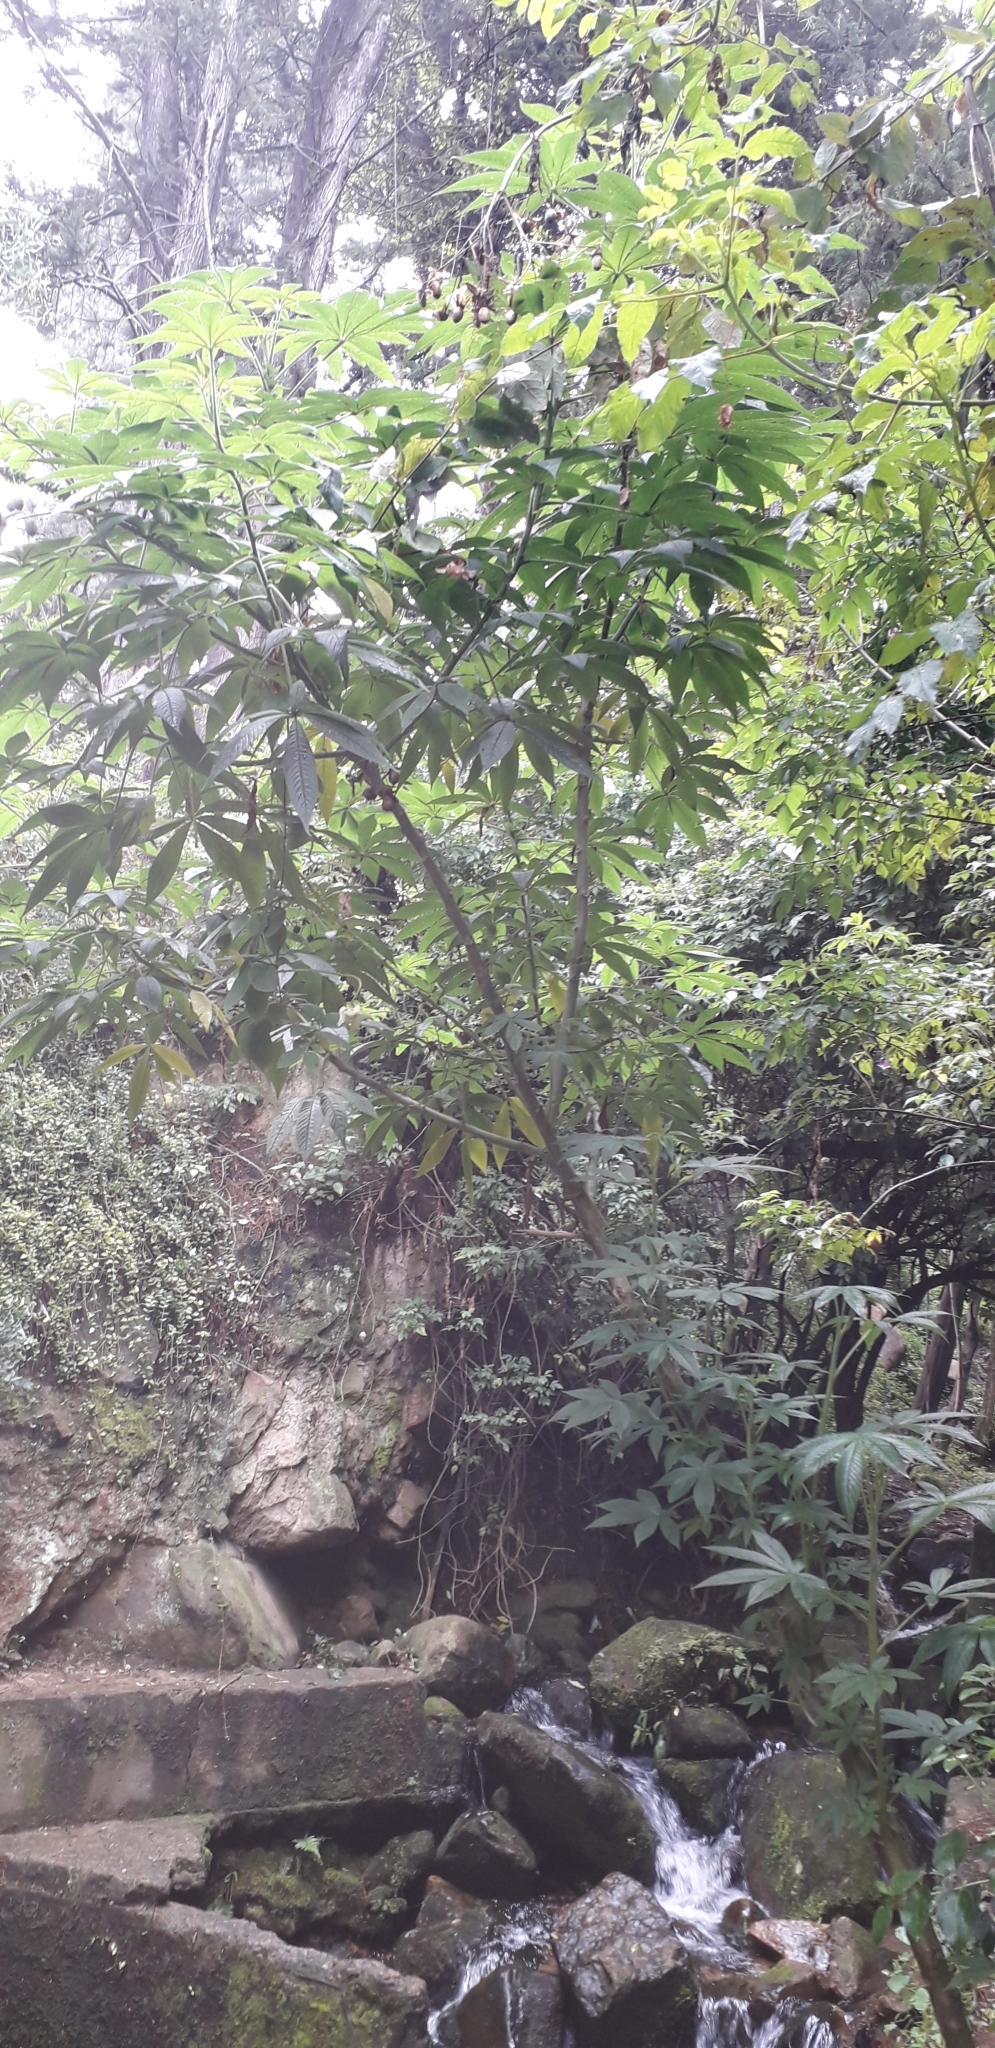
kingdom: Plantae
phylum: Tracheophyta
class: Magnoliopsida
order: Asterales
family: Asteraceae
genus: Dahlia
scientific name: Dahlia imperialis
